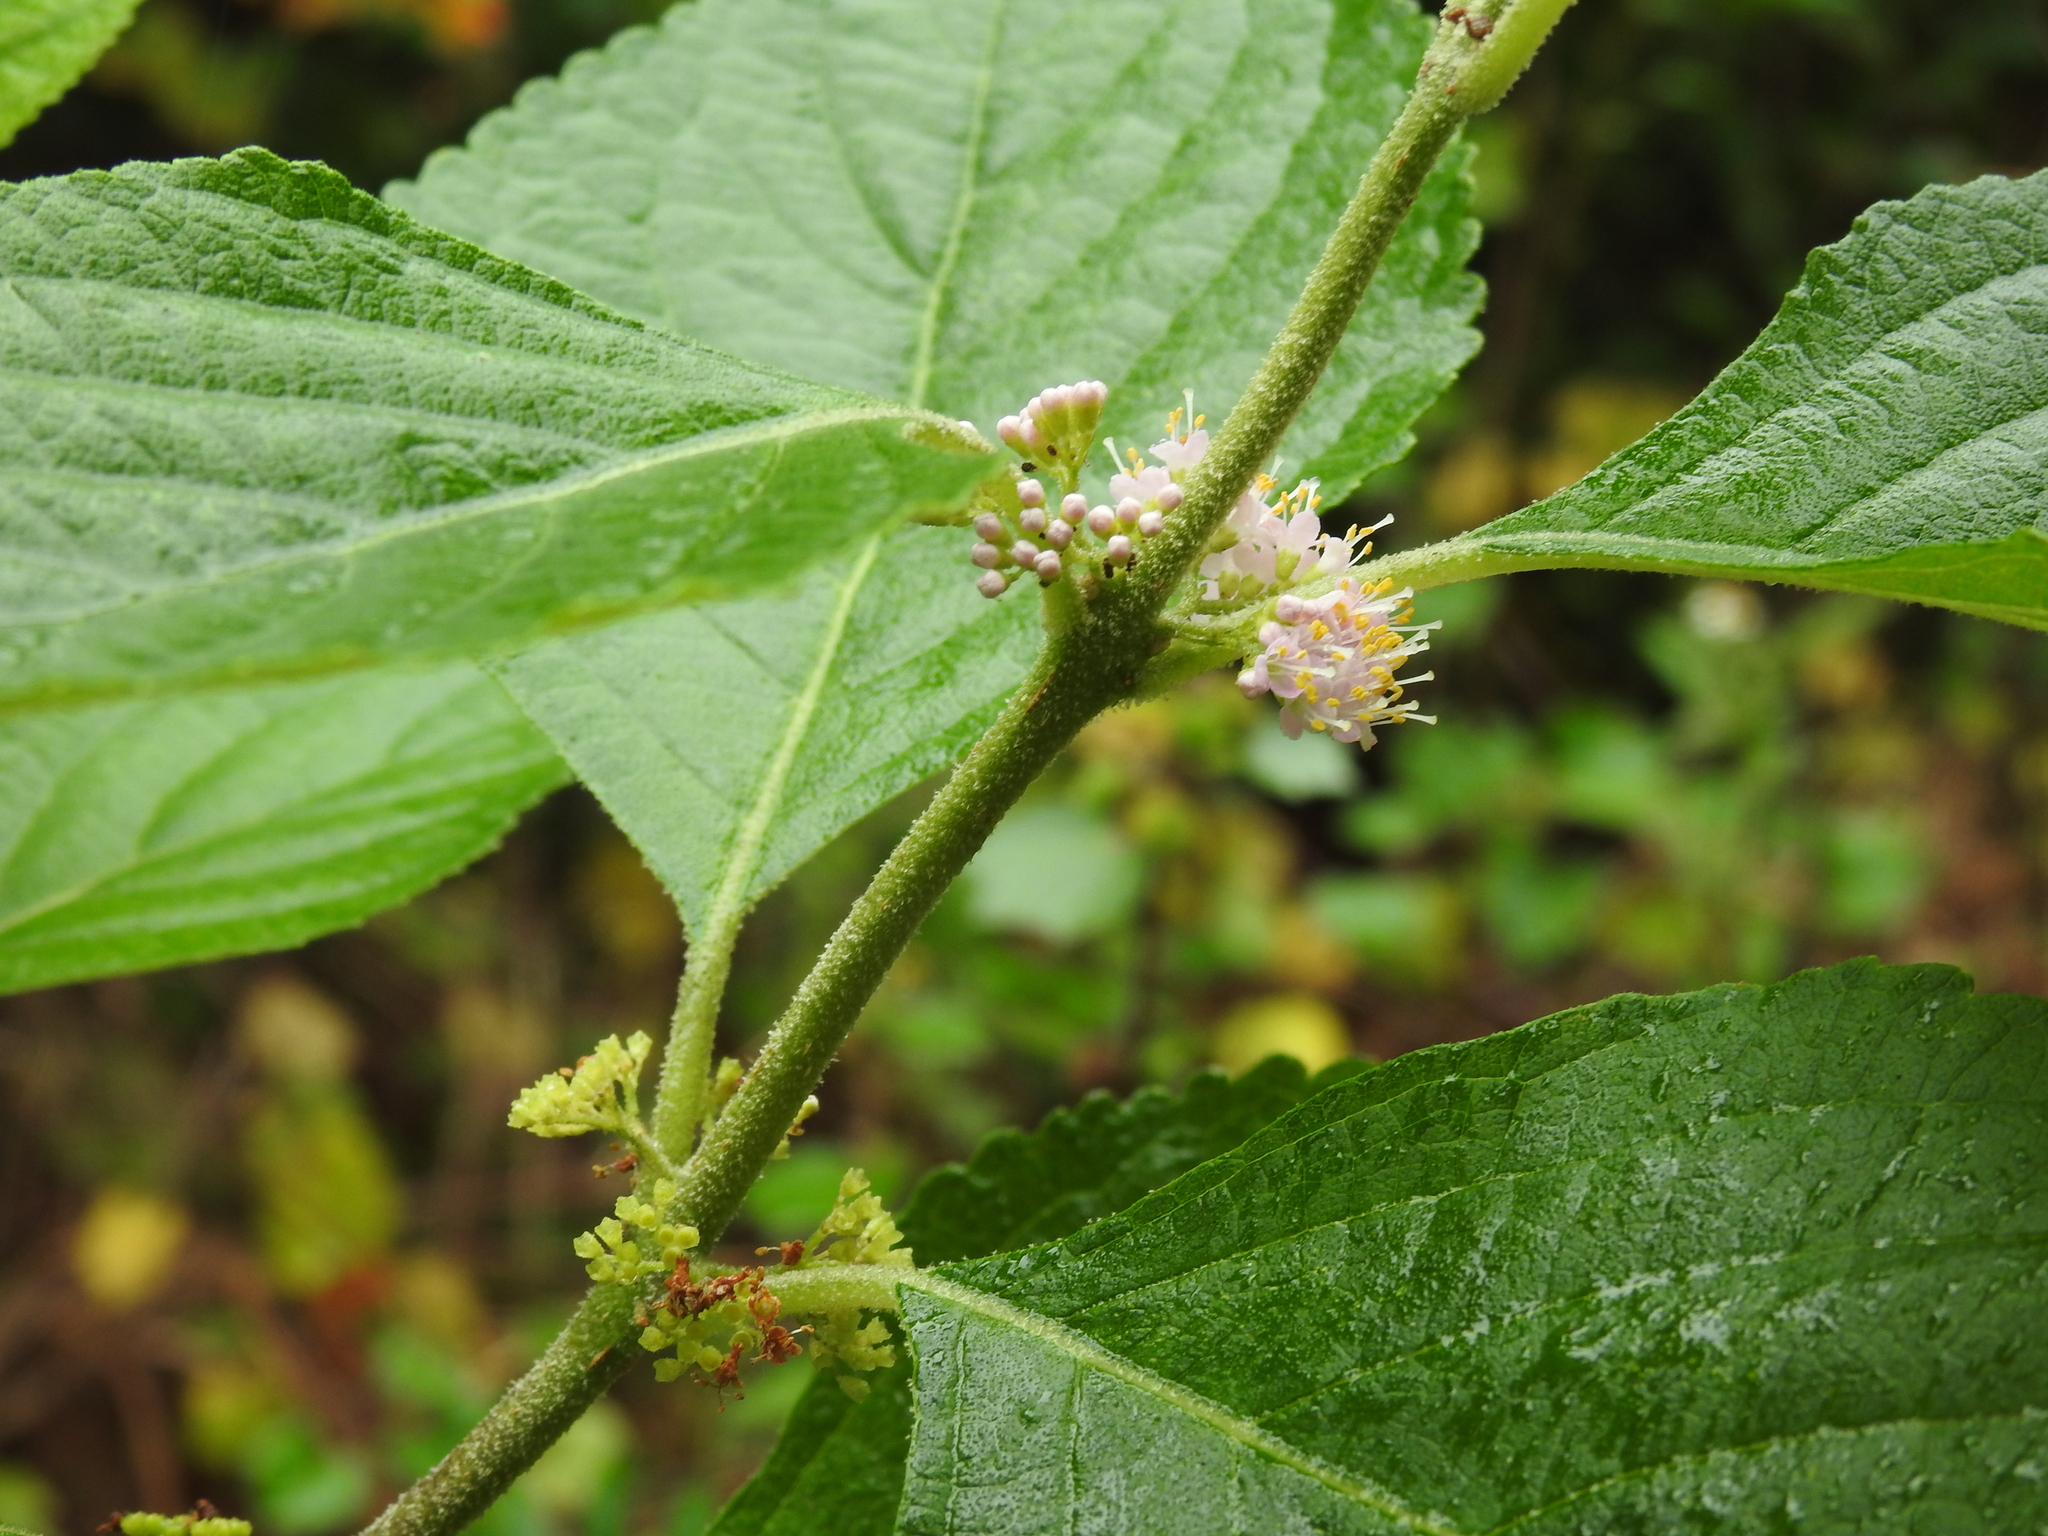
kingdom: Plantae
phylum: Tracheophyta
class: Magnoliopsida
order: Lamiales
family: Lamiaceae
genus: Callicarpa
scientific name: Callicarpa americana
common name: American beautyberry
